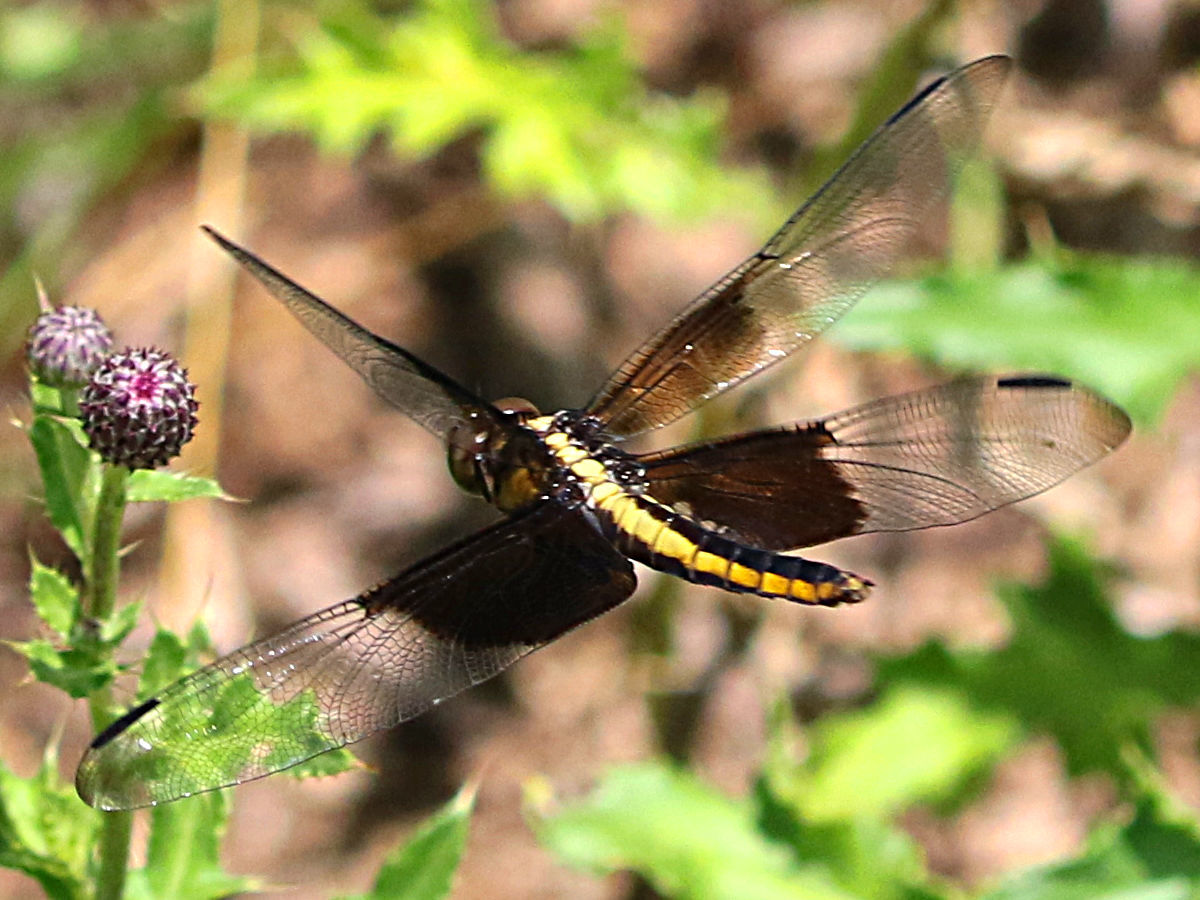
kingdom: Animalia
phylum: Arthropoda
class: Insecta
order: Odonata
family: Libellulidae
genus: Libellula
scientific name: Libellula luctuosa
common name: Widow skimmer
